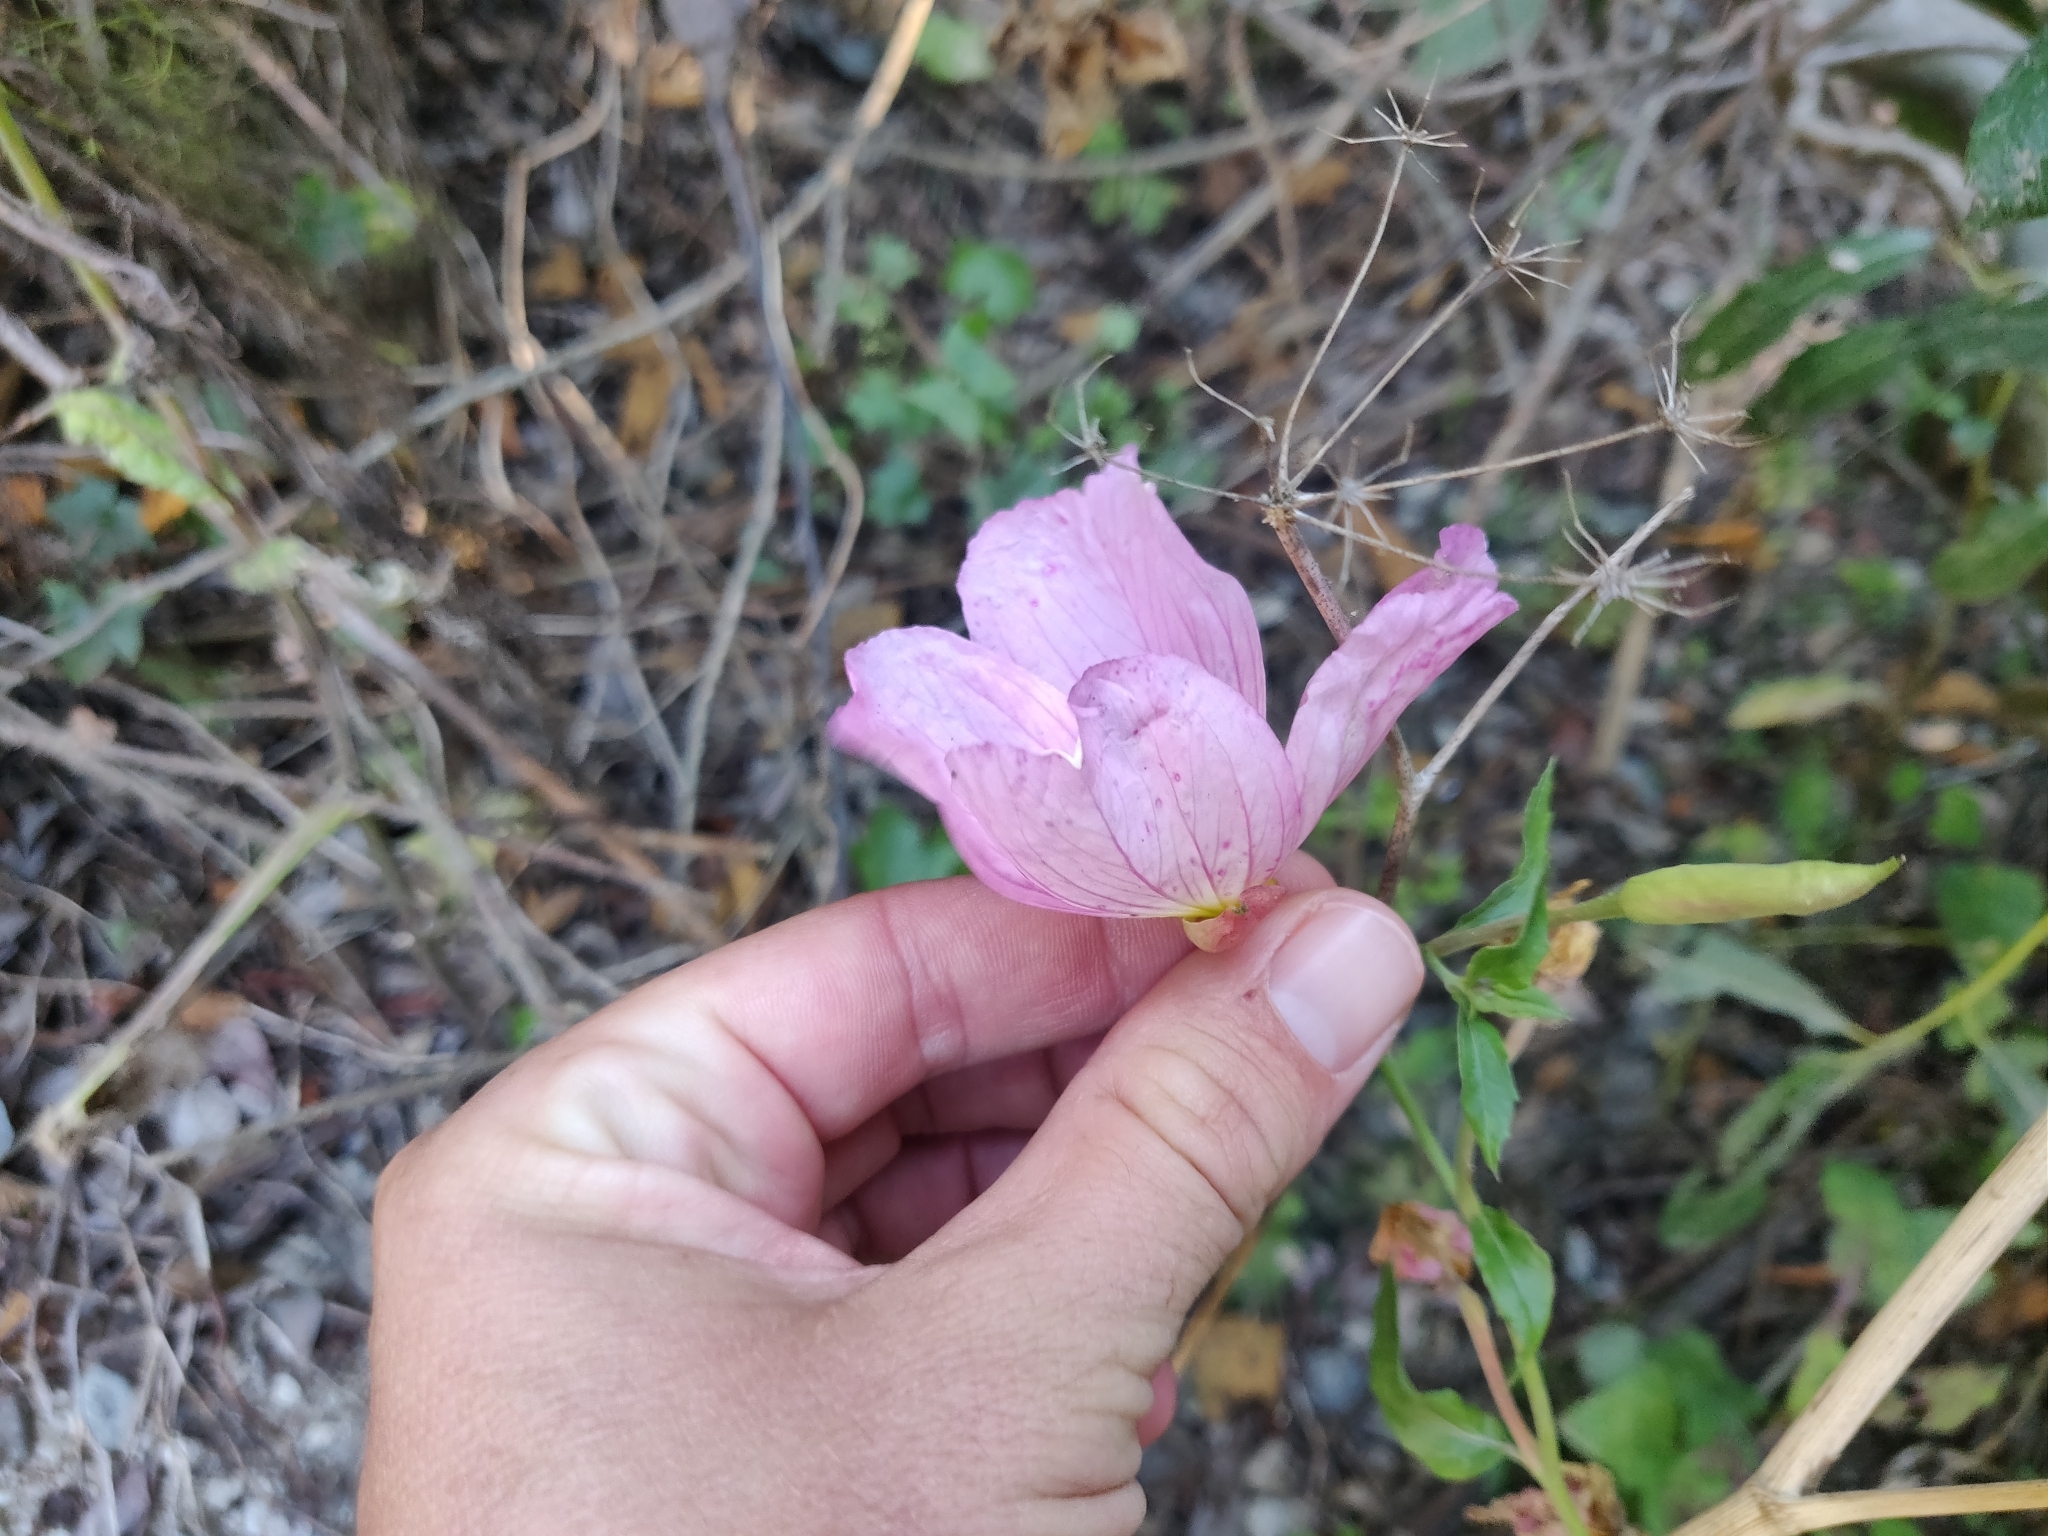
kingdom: Plantae
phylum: Tracheophyta
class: Magnoliopsida
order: Myrtales
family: Onagraceae
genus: Oenothera
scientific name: Oenothera speciosa
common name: White evening-primrose
